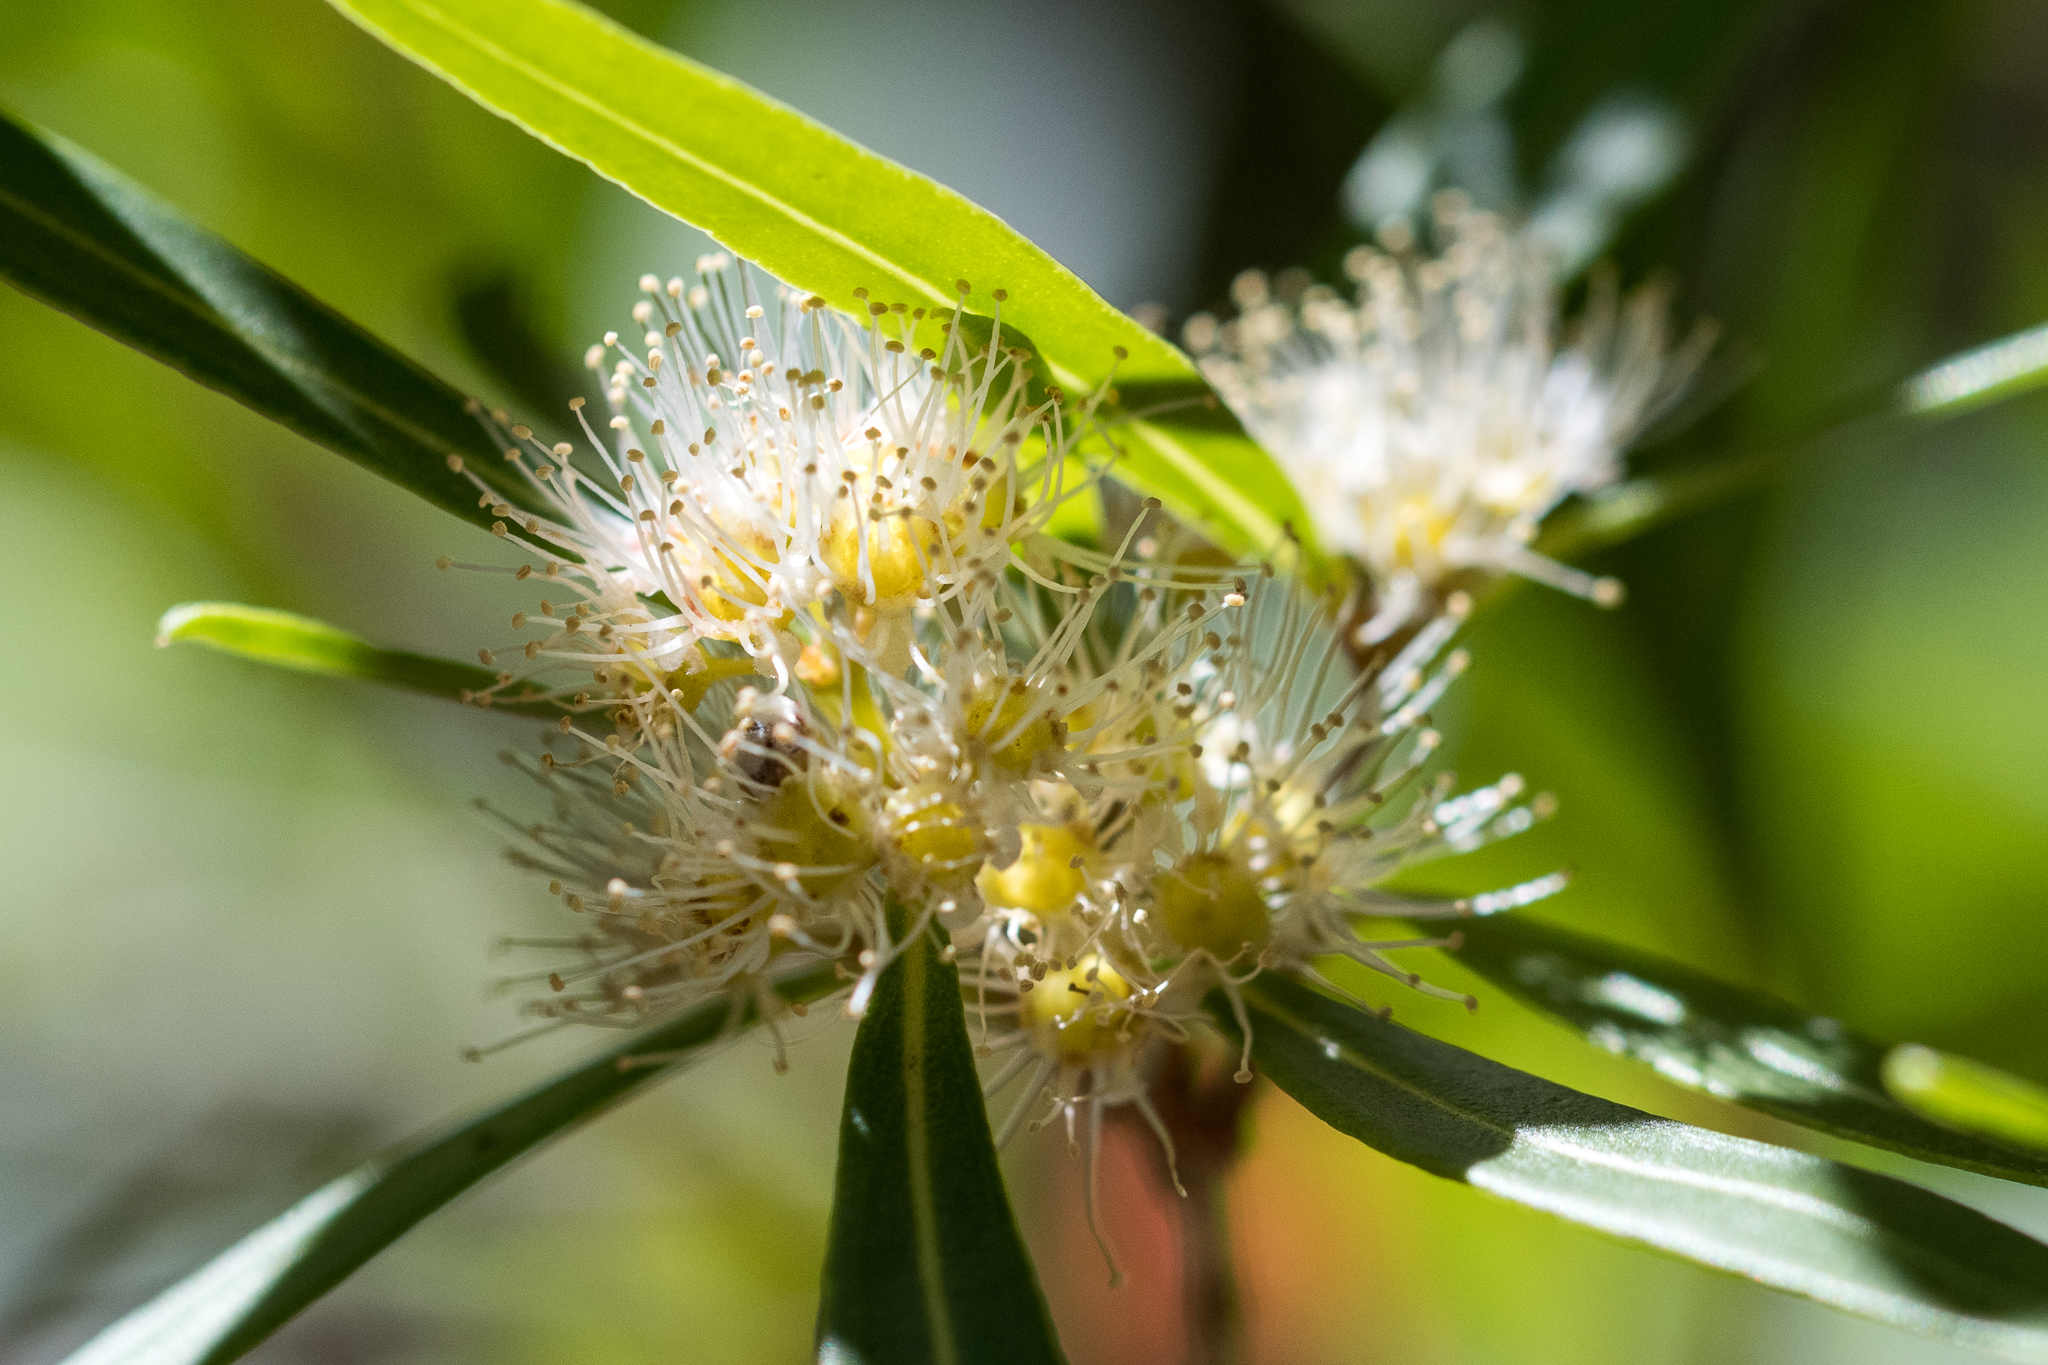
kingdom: Plantae
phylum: Tracheophyta
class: Magnoliopsida
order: Myrtales
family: Myrtaceae
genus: Callistemon
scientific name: Callistemon lanceolatus
